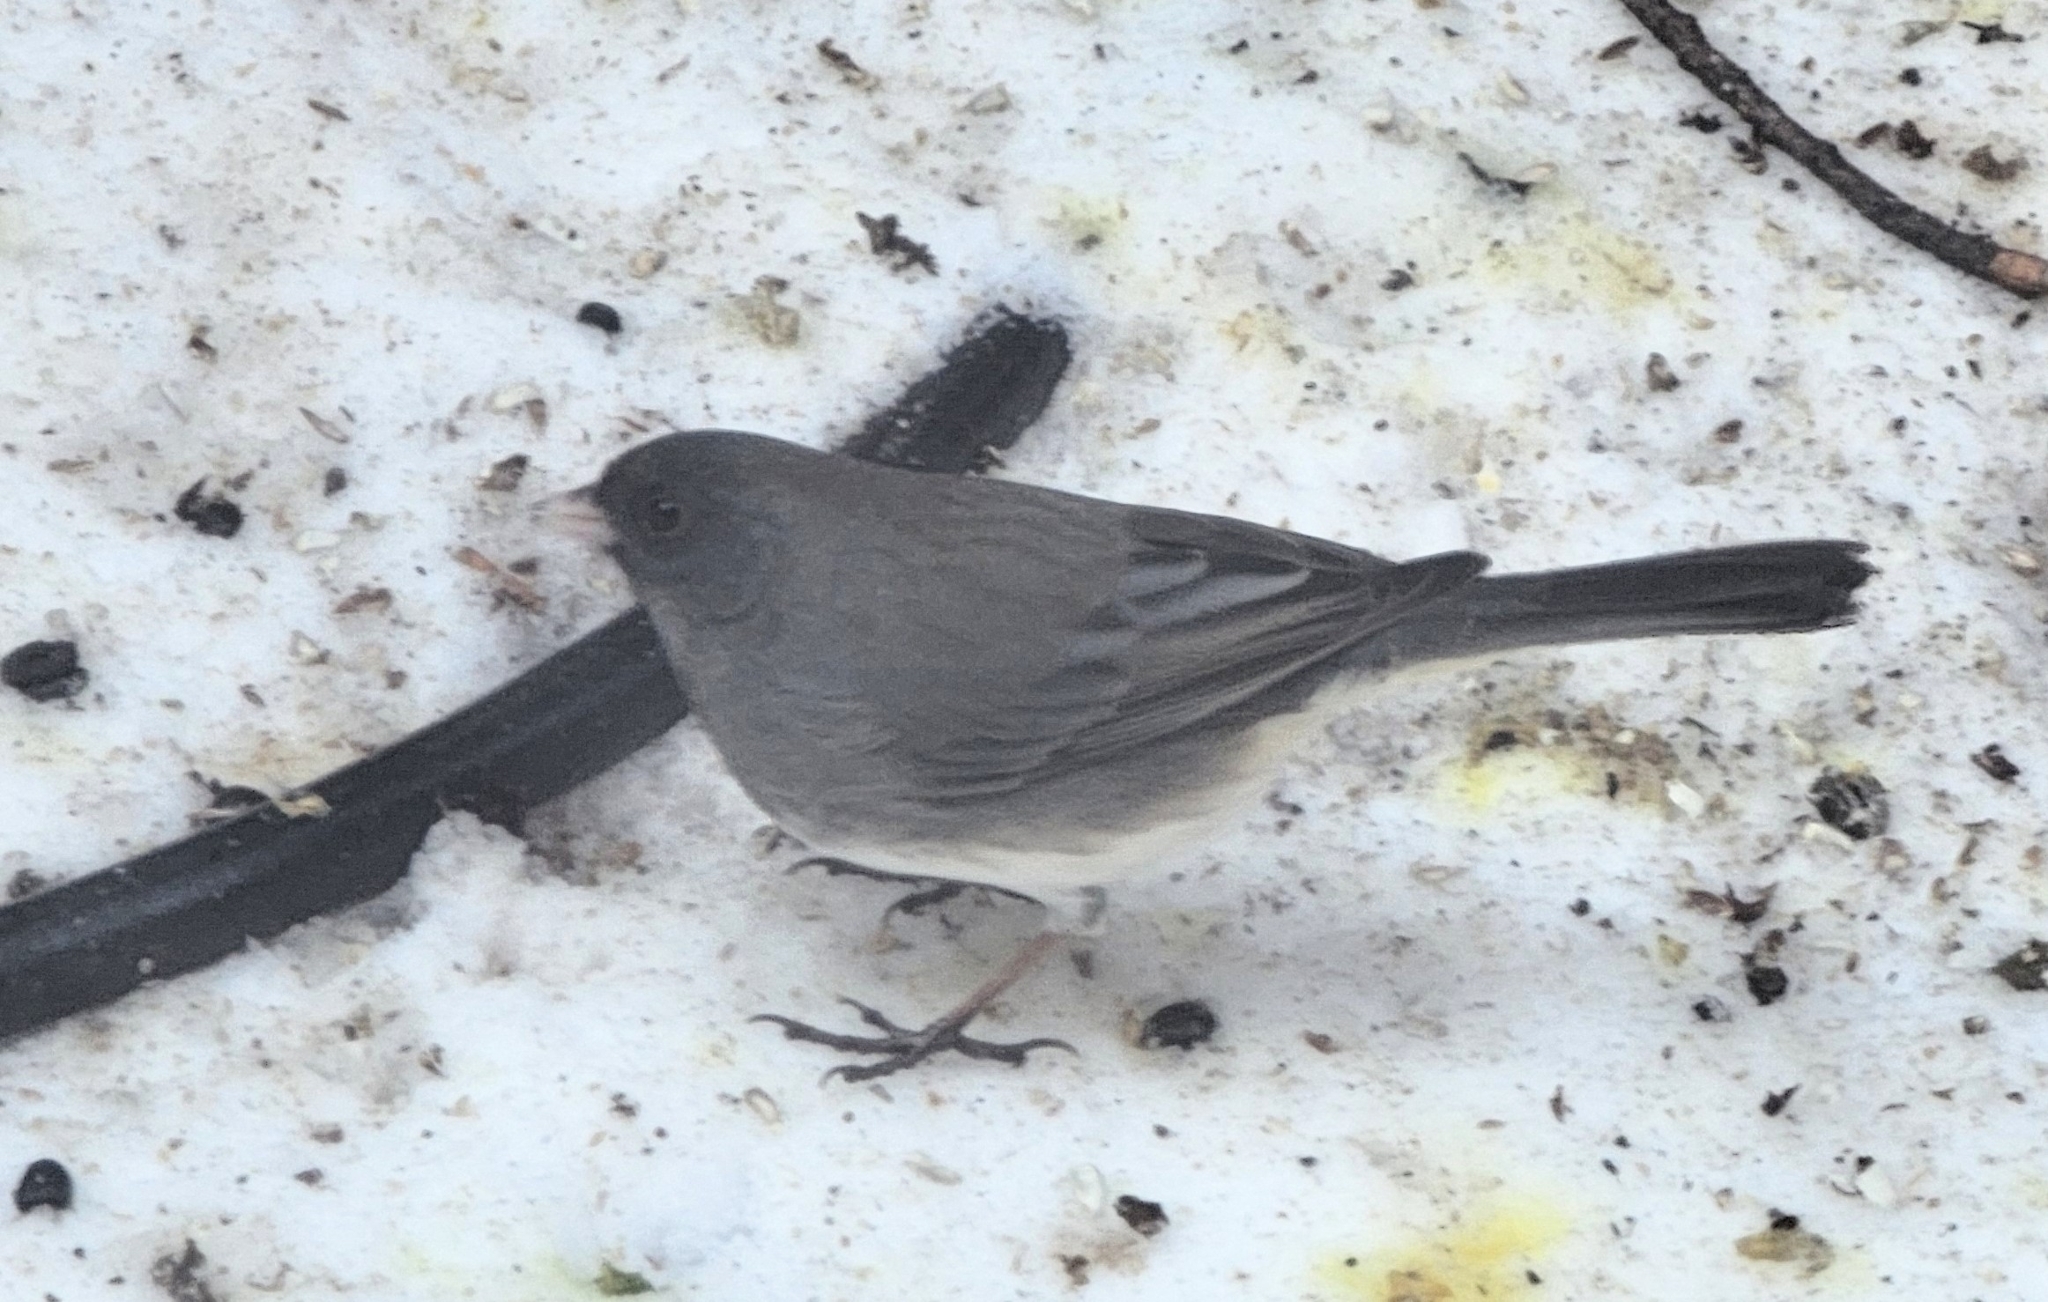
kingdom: Animalia
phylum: Chordata
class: Aves
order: Passeriformes
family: Passerellidae
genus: Junco
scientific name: Junco hyemalis
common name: Dark-eyed junco
